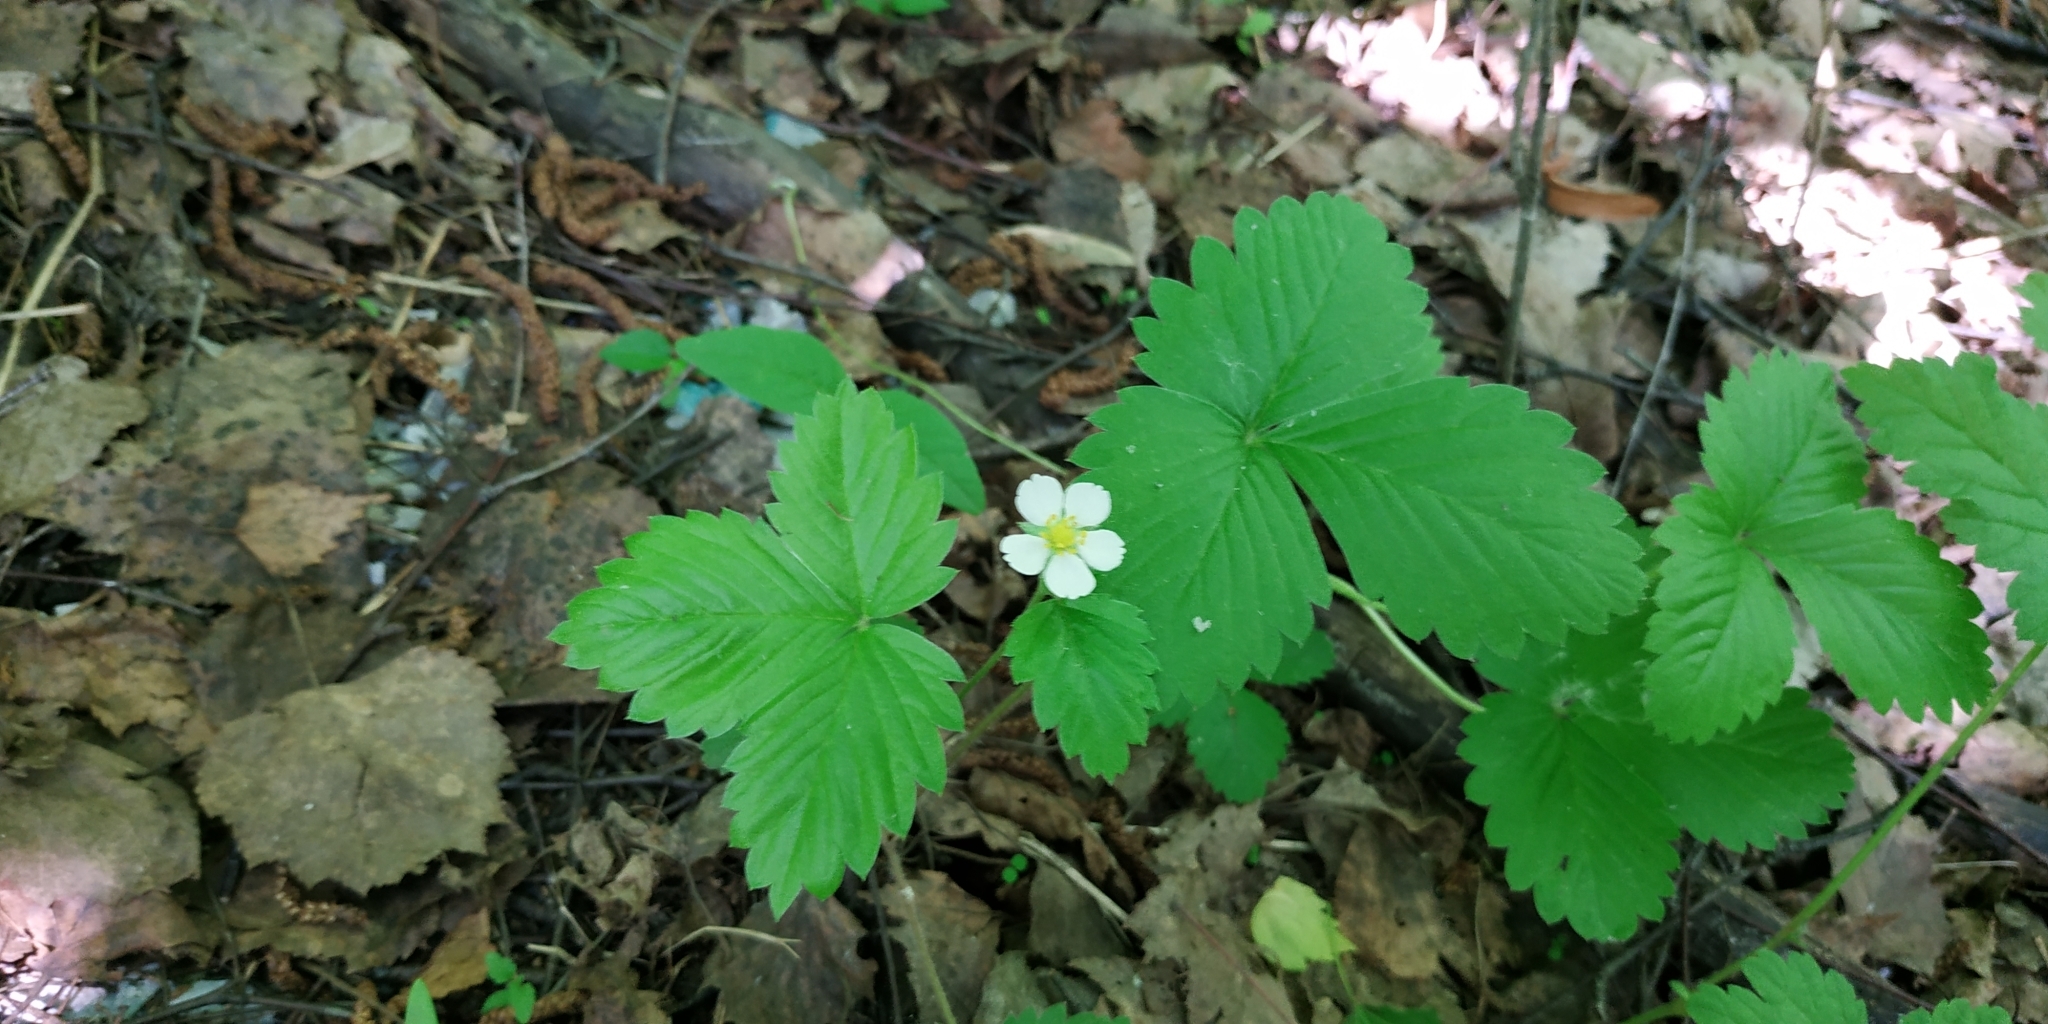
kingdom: Plantae
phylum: Tracheophyta
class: Magnoliopsida
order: Rosales
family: Rosaceae
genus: Fragaria
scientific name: Fragaria vesca
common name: Wild strawberry
